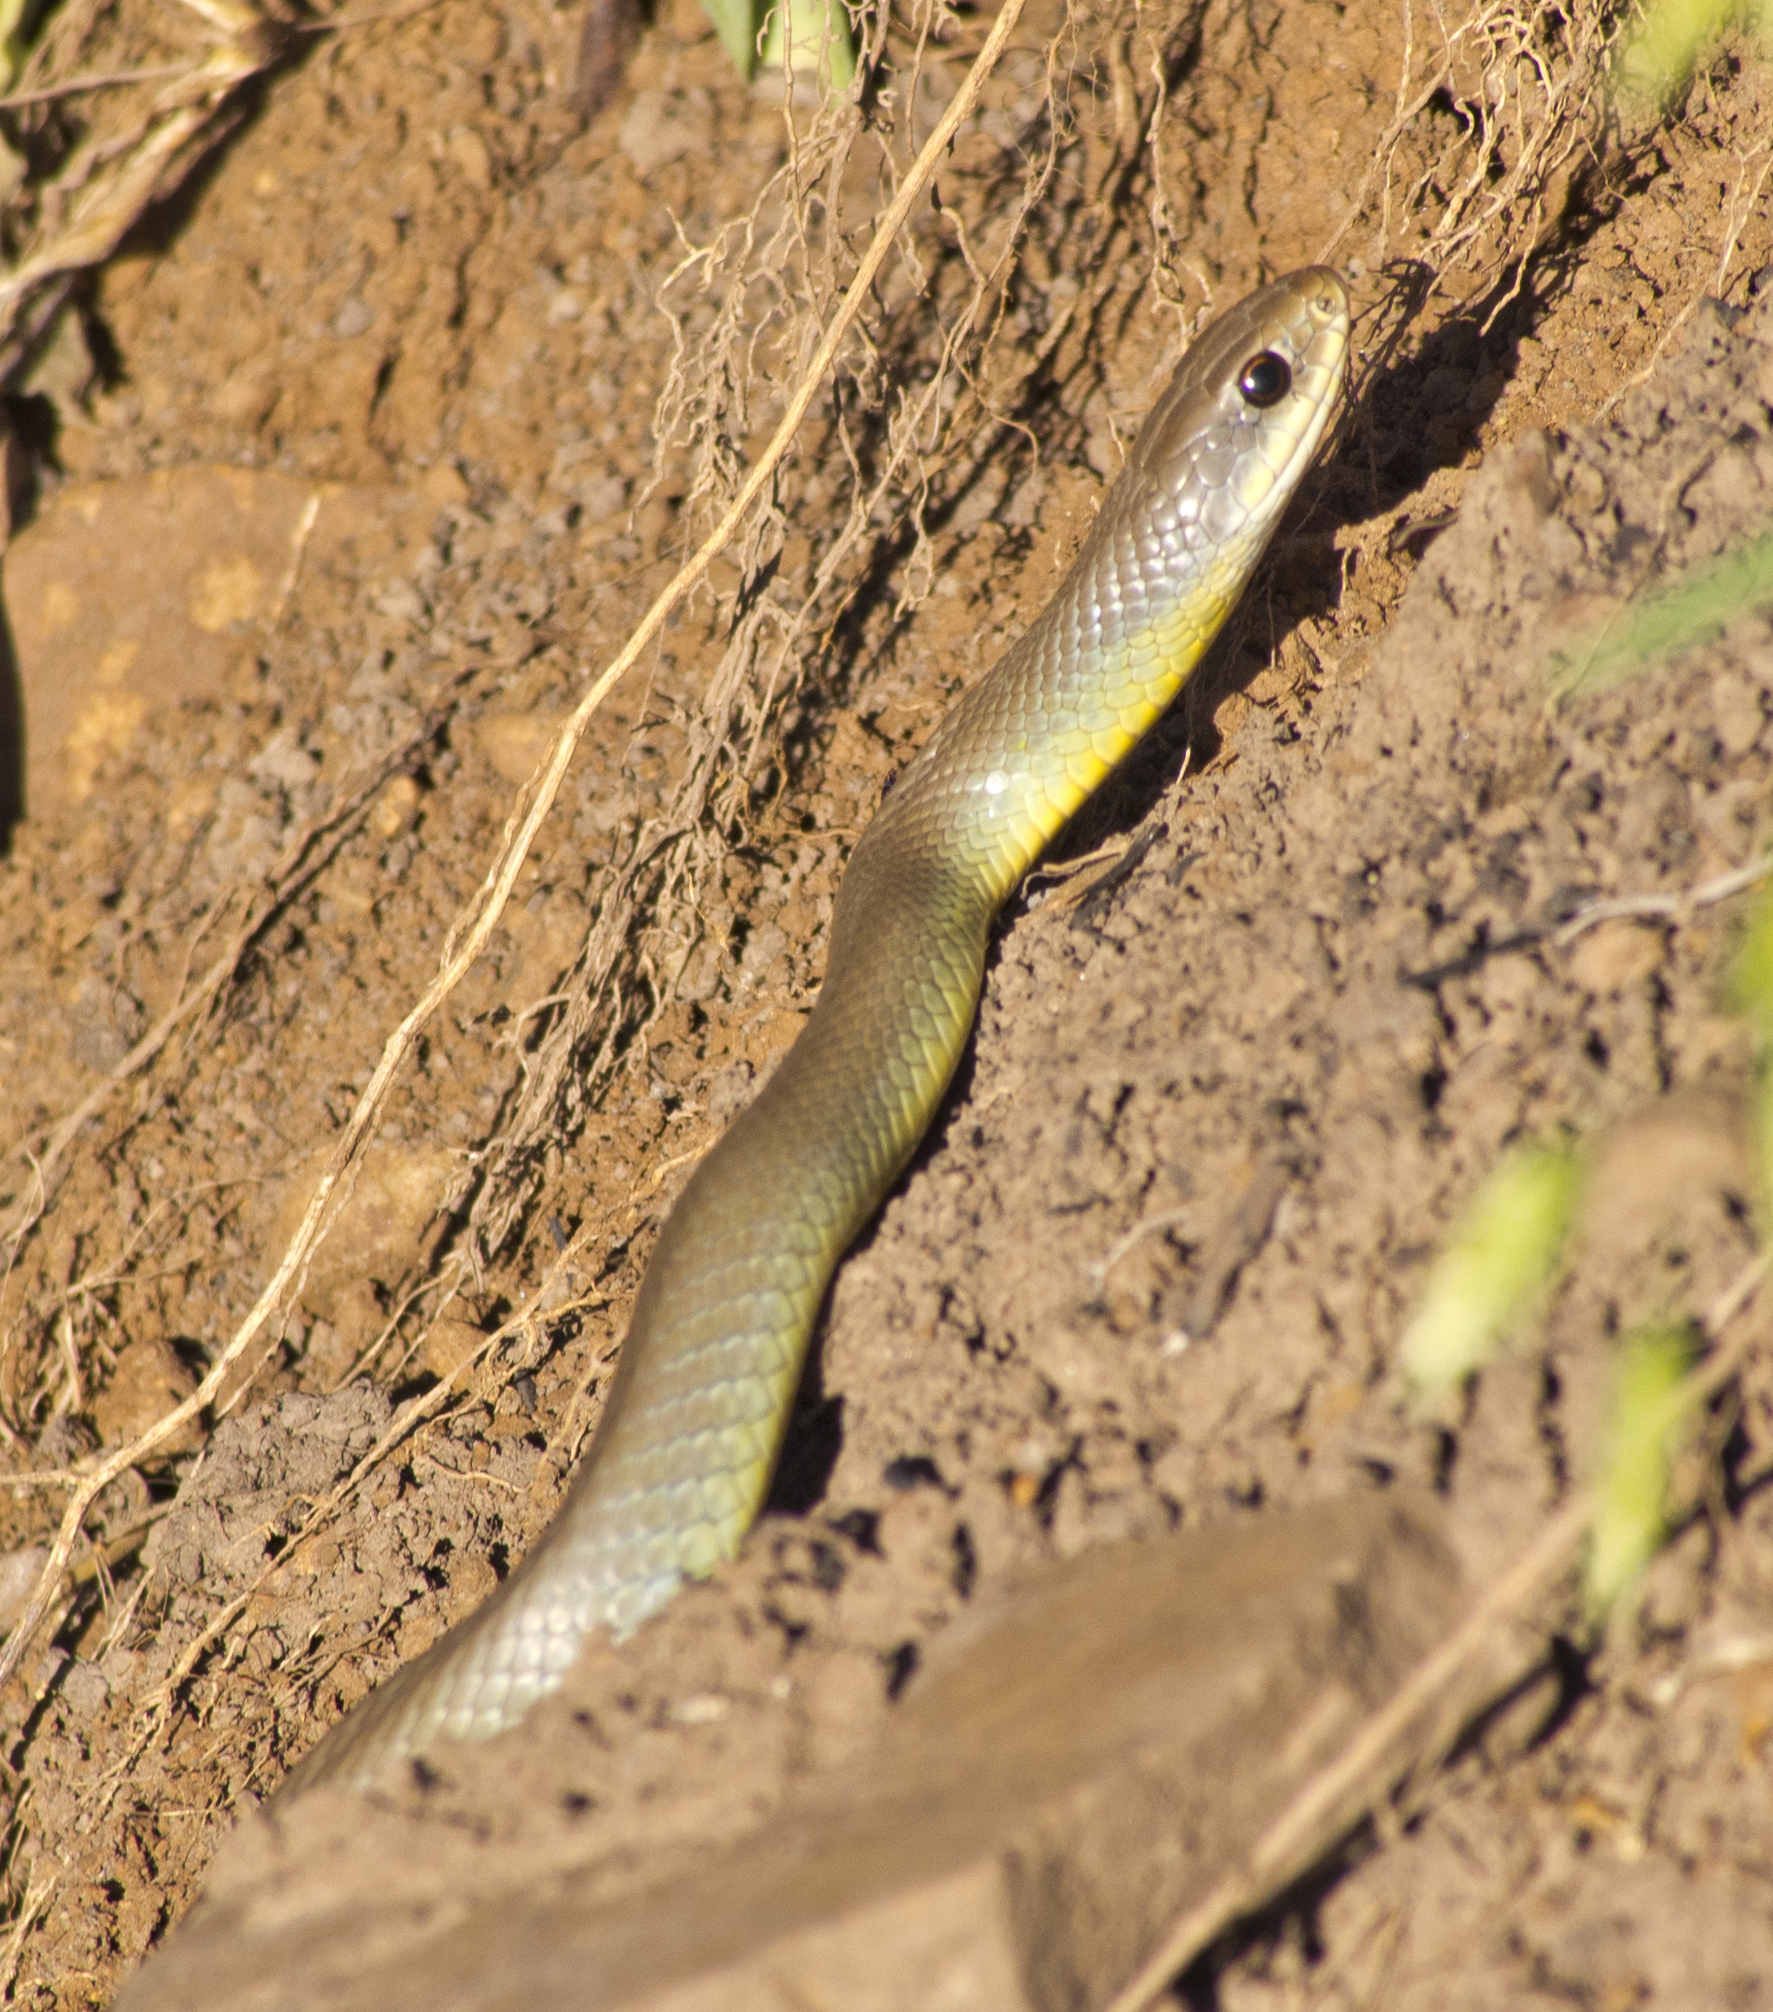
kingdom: Animalia
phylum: Chordata
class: Squamata
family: Colubridae
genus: Coluber
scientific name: Coluber constrictor
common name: Eastern racer
